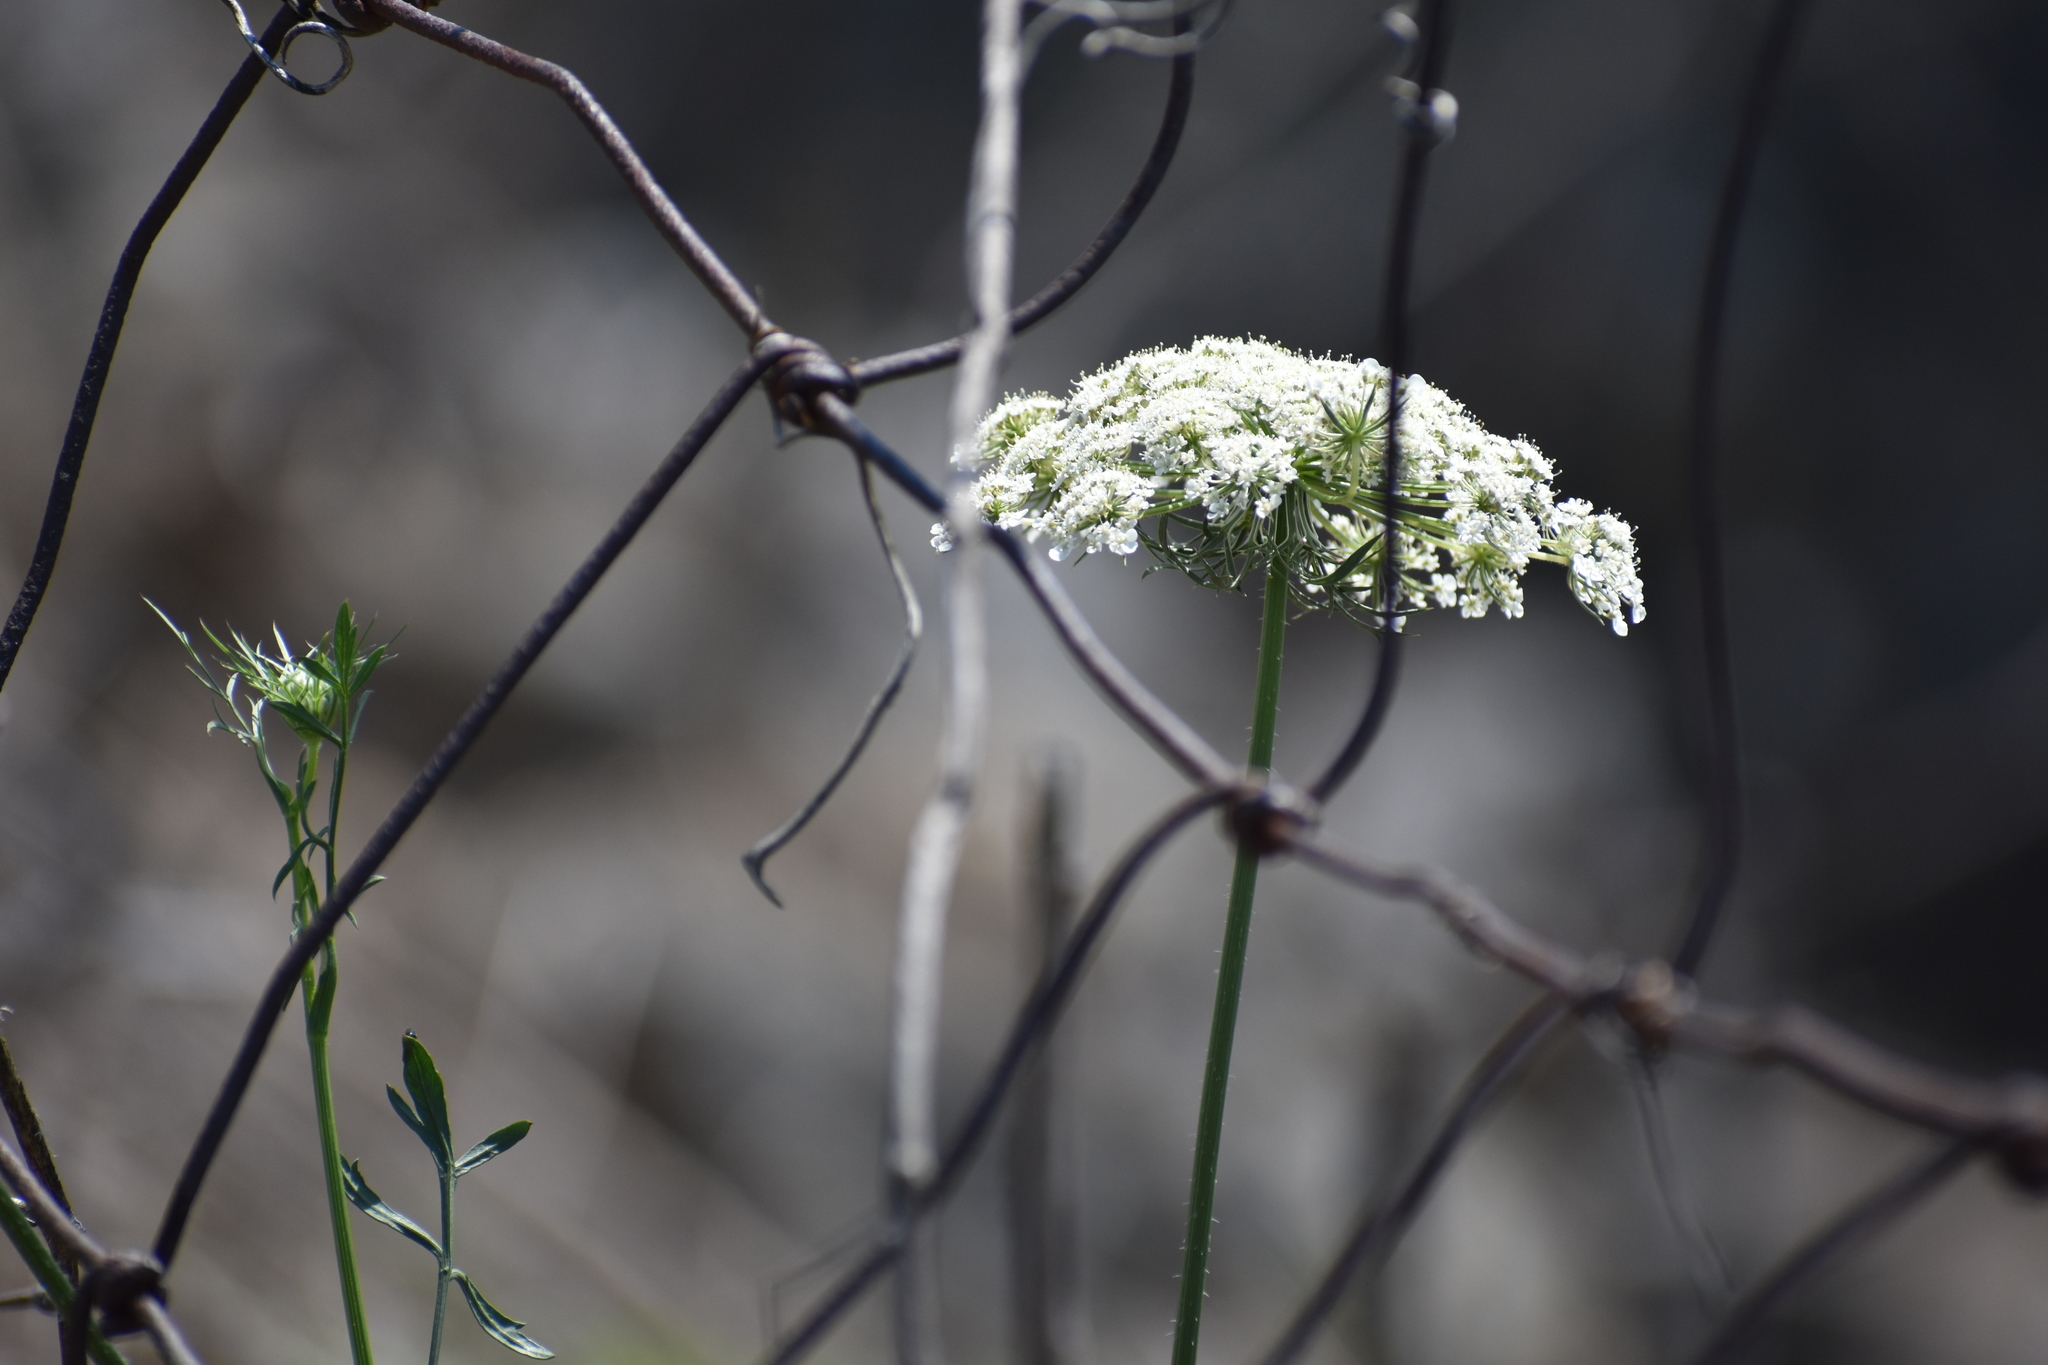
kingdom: Plantae
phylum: Tracheophyta
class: Magnoliopsida
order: Apiales
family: Apiaceae
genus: Daucus
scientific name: Daucus carota
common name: Wild carrot
